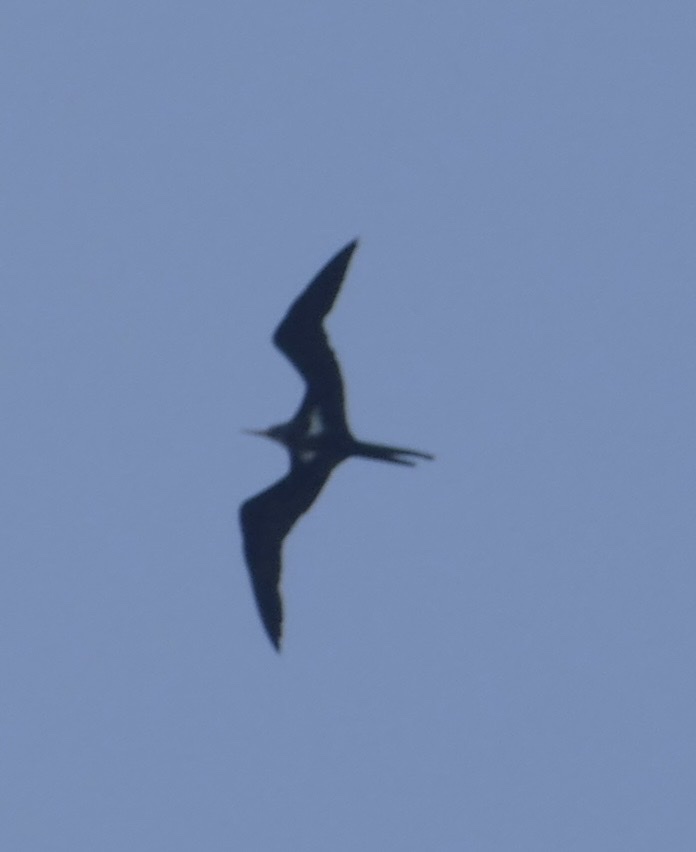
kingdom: Animalia
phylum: Chordata
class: Aves
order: Suliformes
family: Fregatidae
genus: Fregata
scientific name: Fregata ariel
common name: Lesser frigatebird
